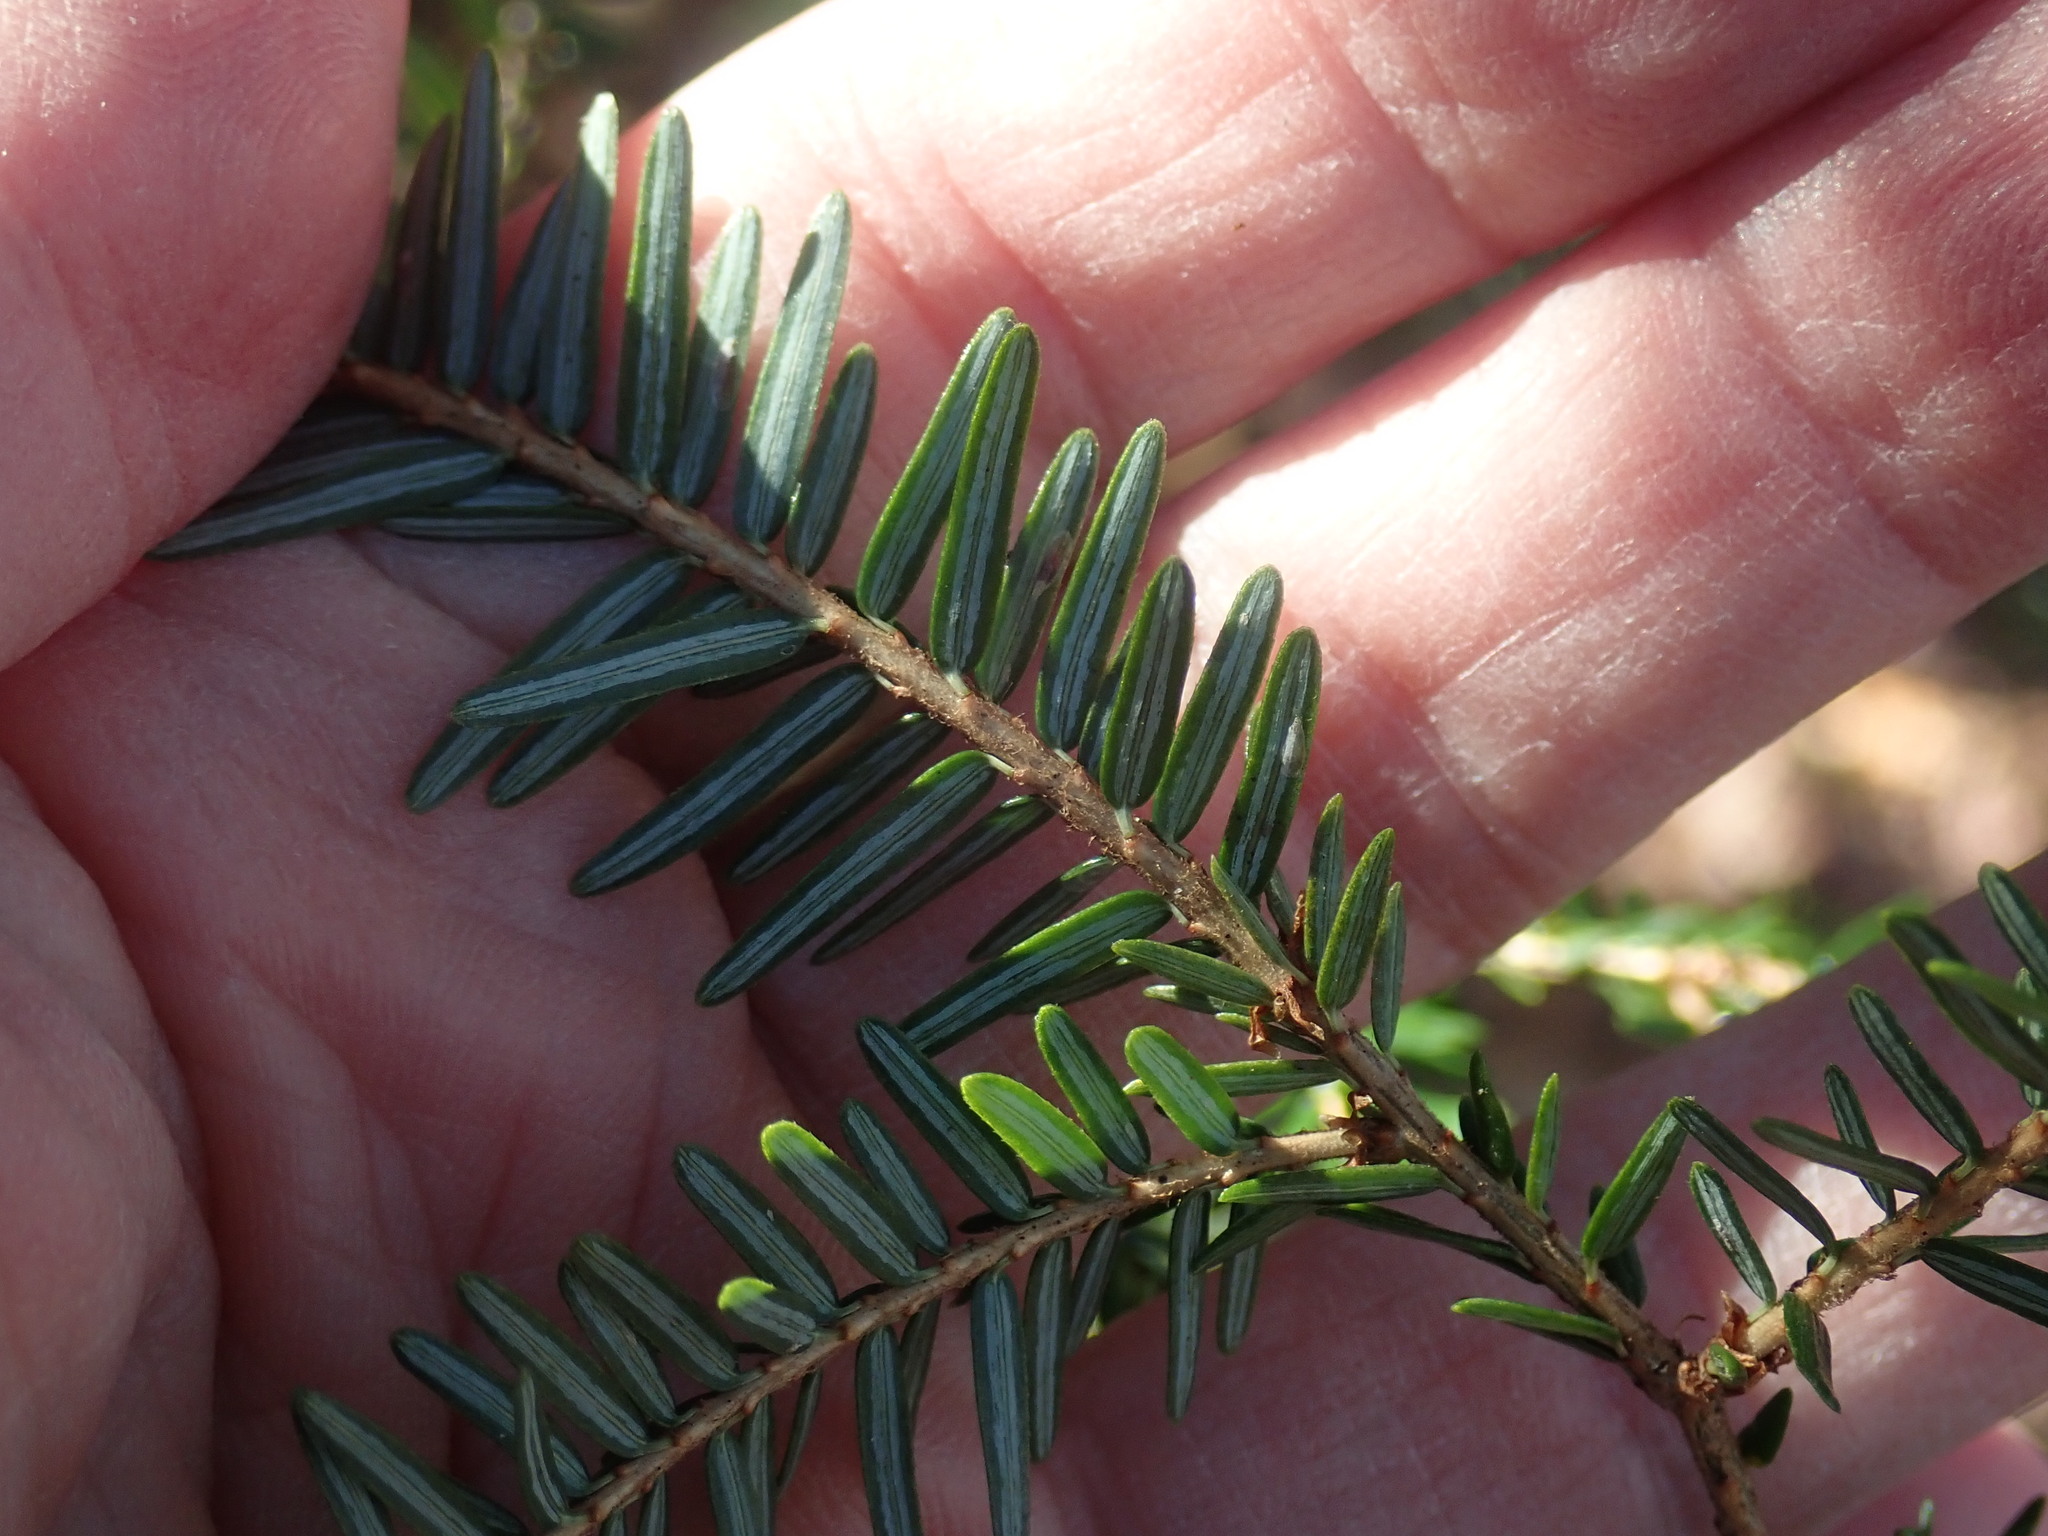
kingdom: Plantae
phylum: Tracheophyta
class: Pinopsida
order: Pinales
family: Pinaceae
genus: Tsuga
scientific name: Tsuga canadensis
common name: Eastern hemlock
